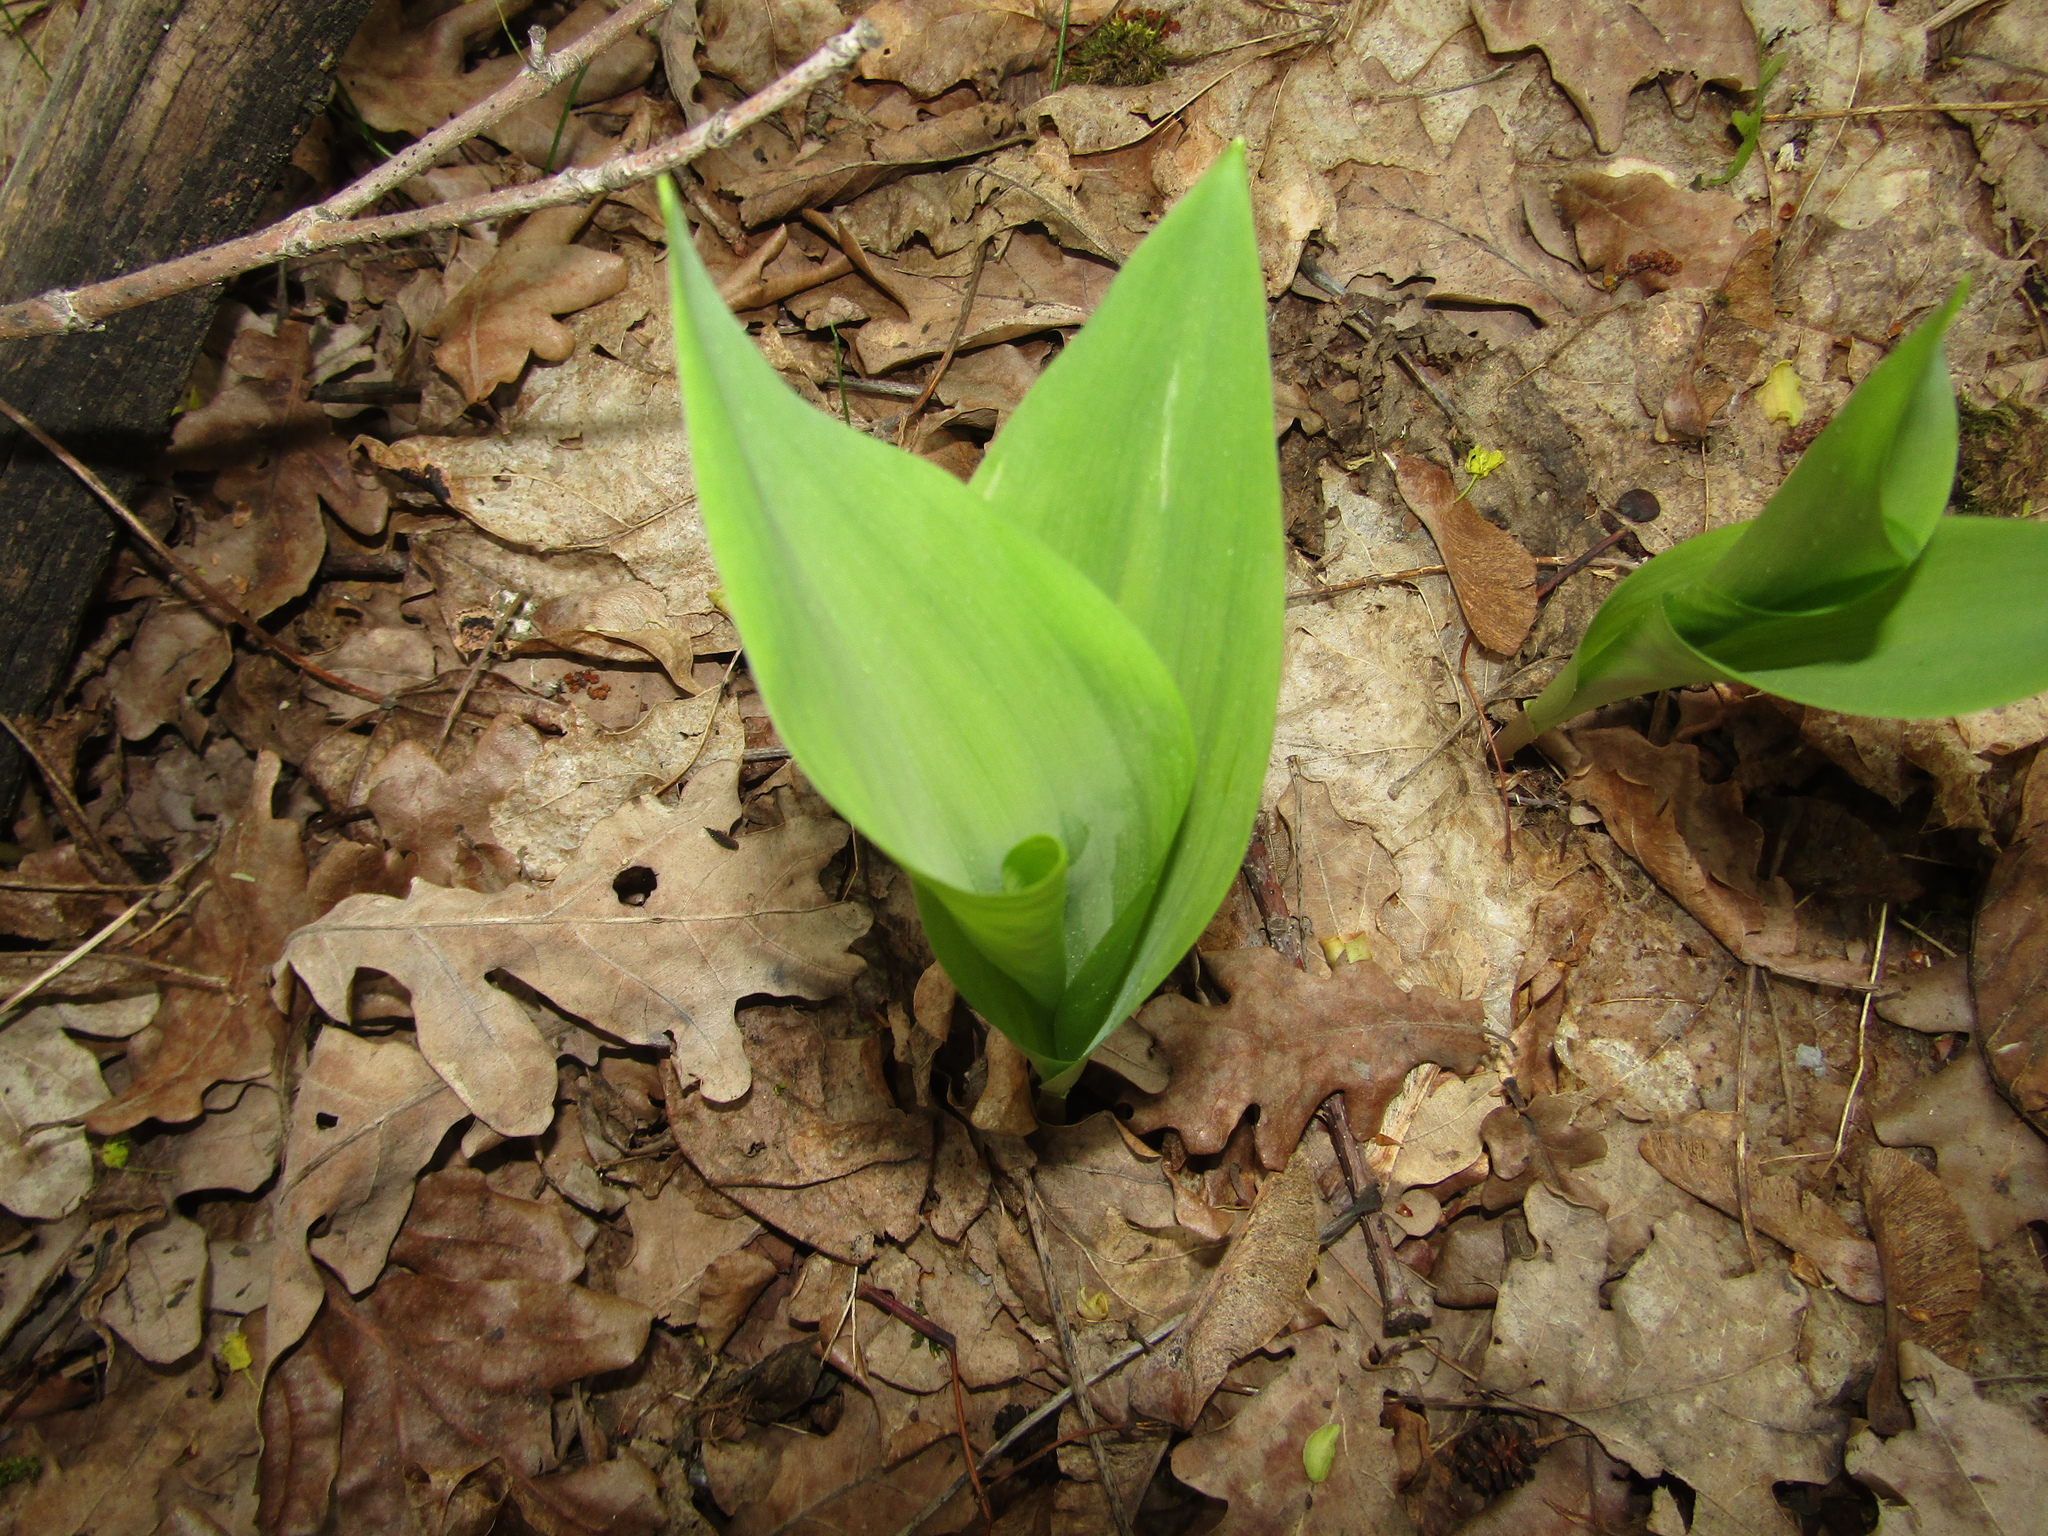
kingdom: Plantae
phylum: Tracheophyta
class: Liliopsida
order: Asparagales
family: Asparagaceae
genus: Convallaria
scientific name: Convallaria majalis
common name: Lily-of-the-valley
